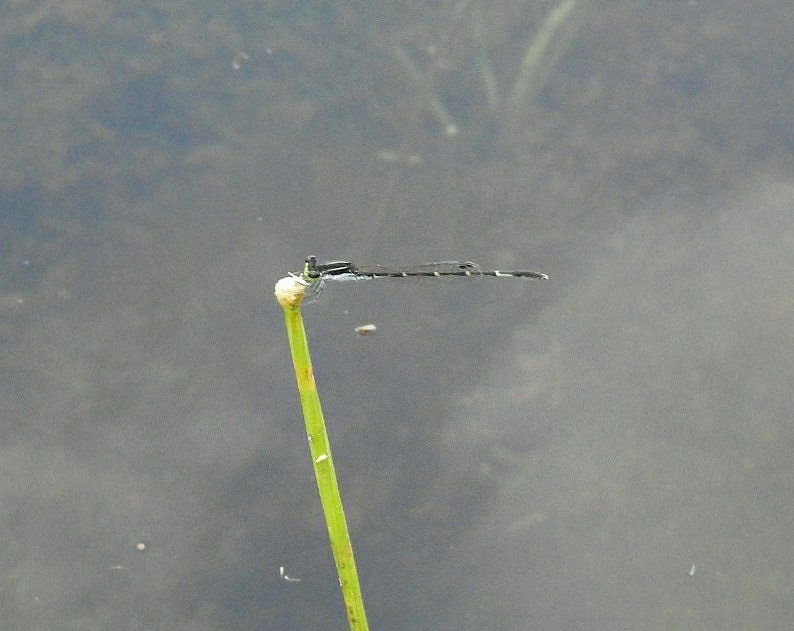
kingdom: Animalia
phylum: Arthropoda
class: Insecta
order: Odonata
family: Coenagrionidae
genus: Agriocnemis
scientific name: Agriocnemis splendidissima
